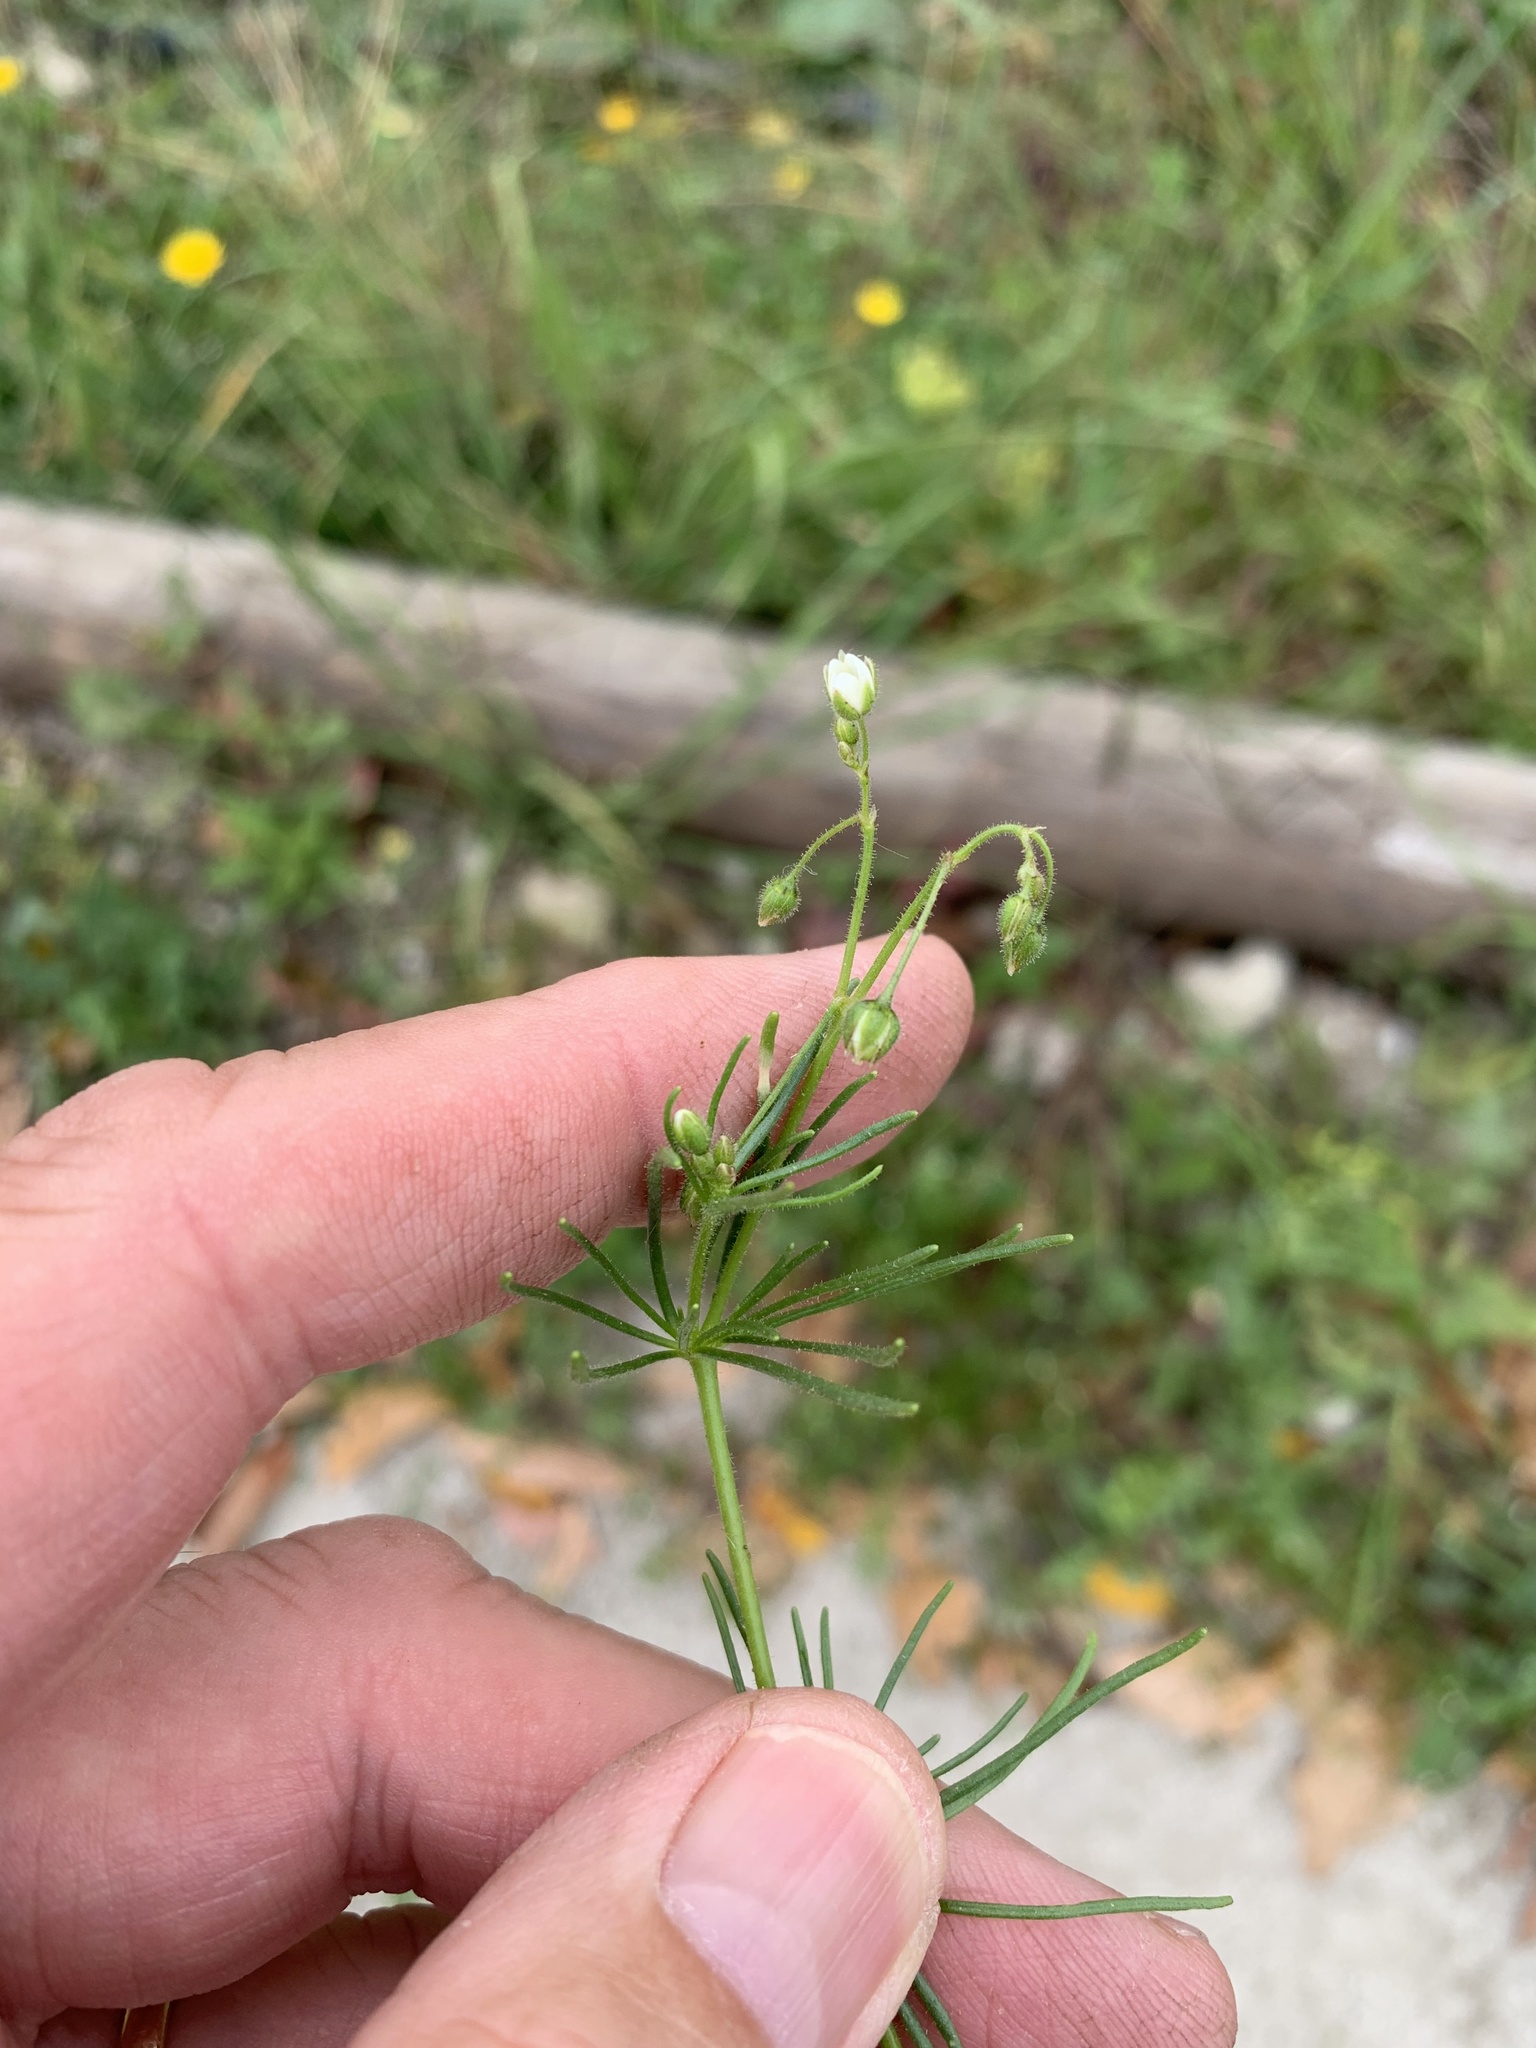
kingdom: Plantae
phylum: Tracheophyta
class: Magnoliopsida
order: Caryophyllales
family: Caryophyllaceae
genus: Spergula
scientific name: Spergula arvensis
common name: Corn spurrey
